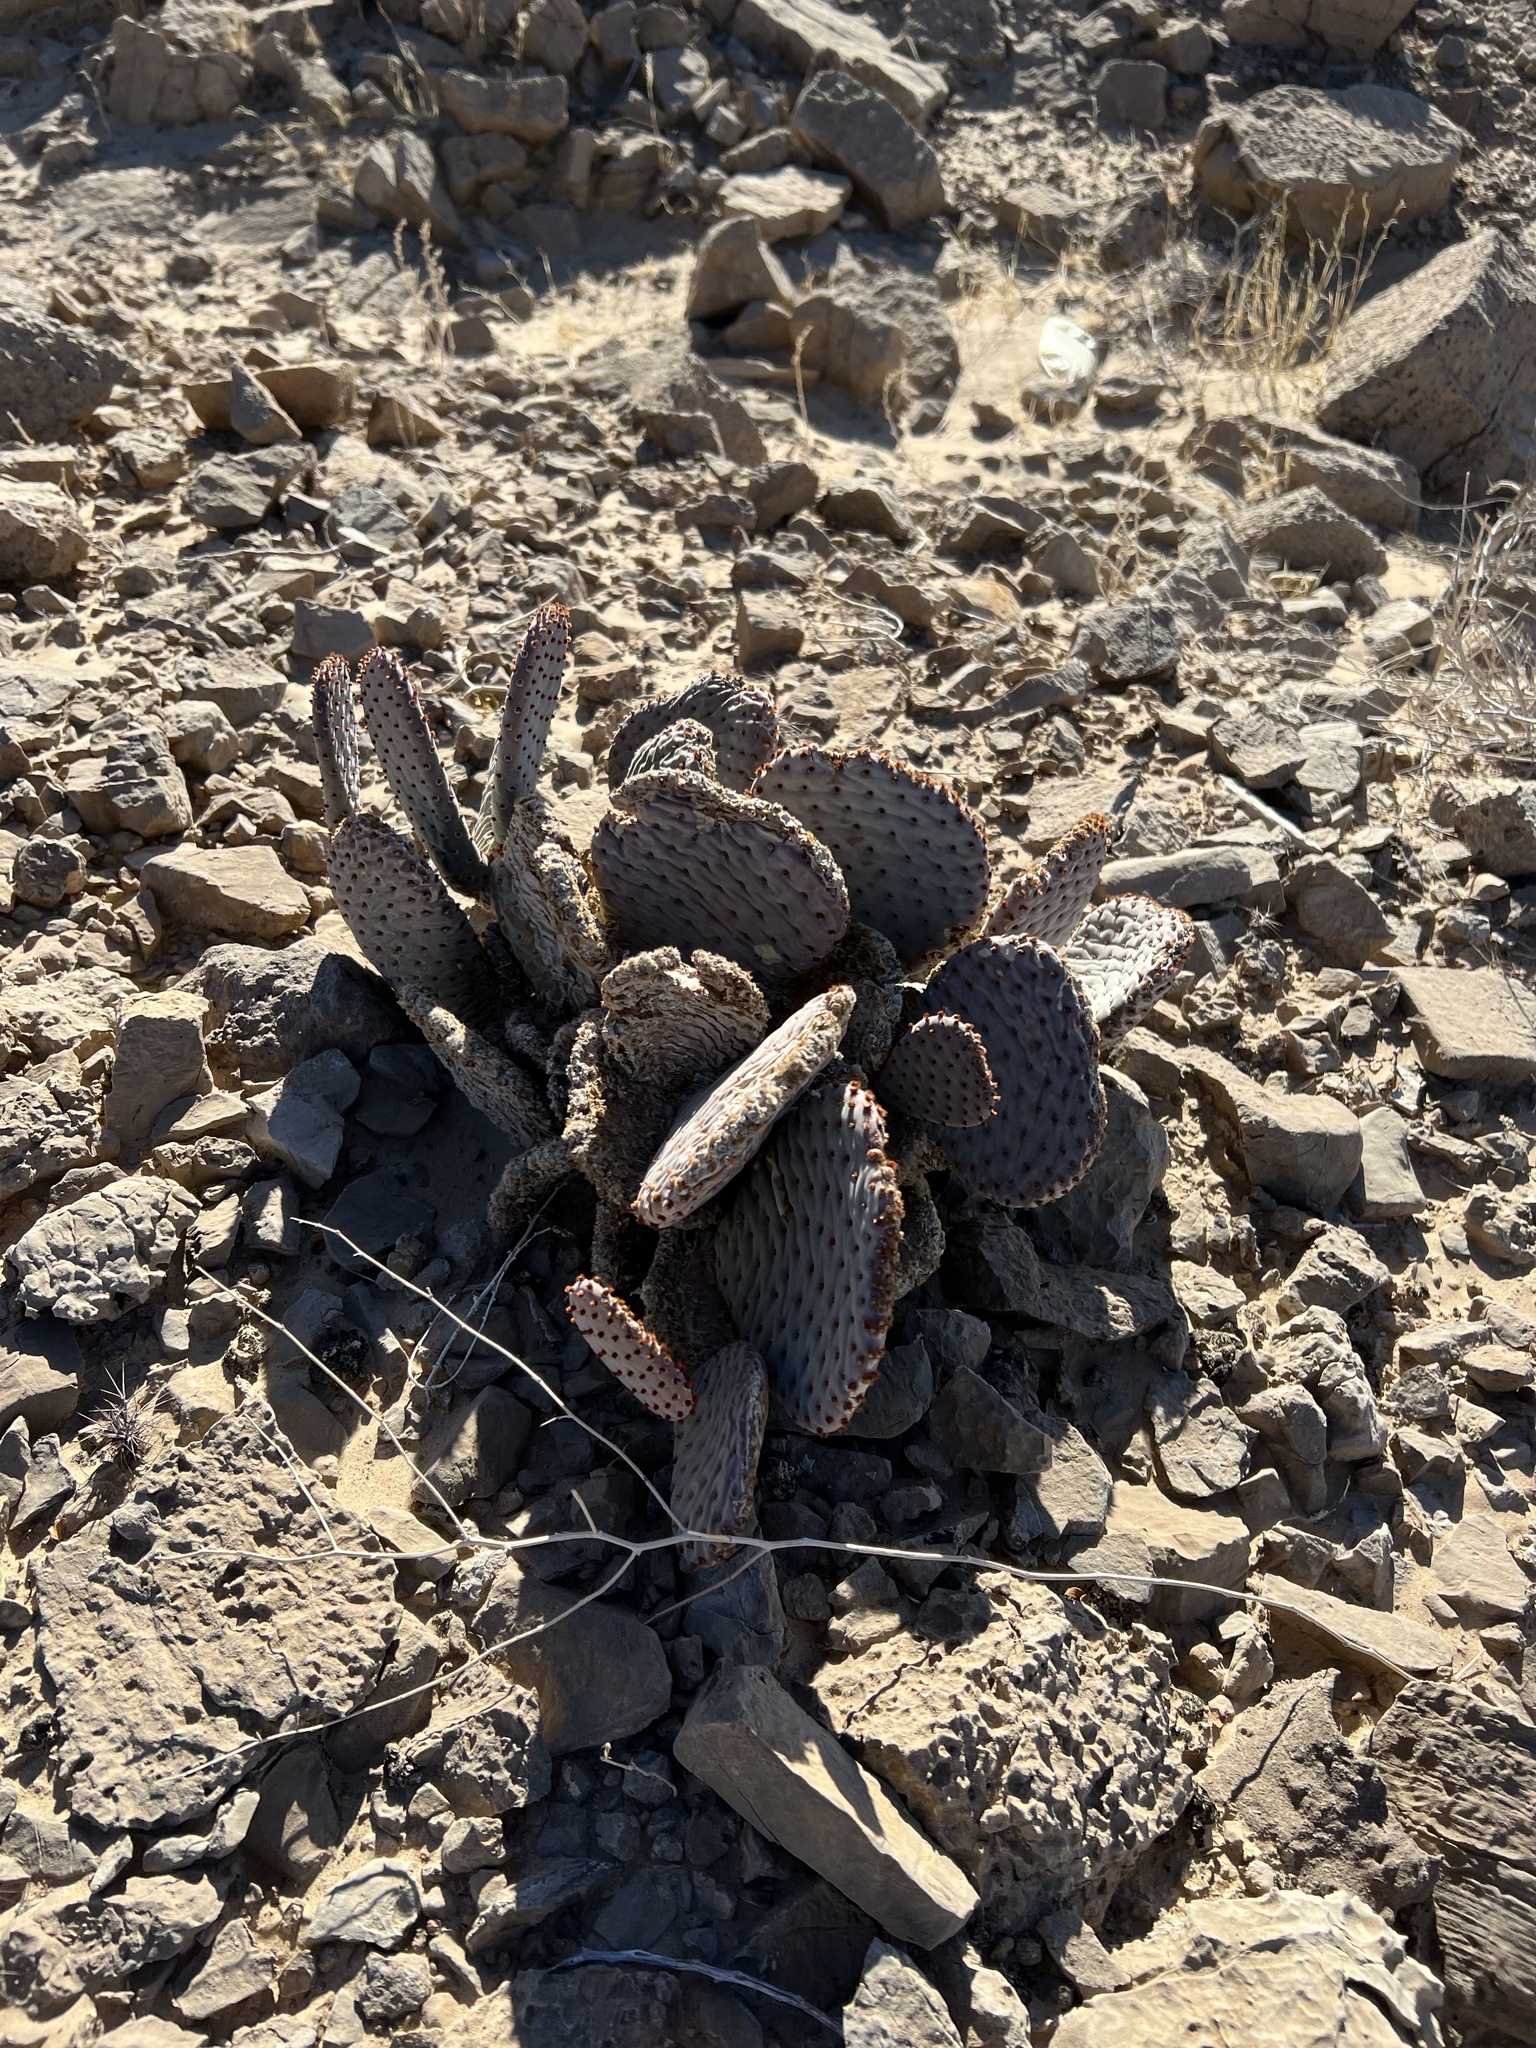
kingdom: Plantae
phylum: Tracheophyta
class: Magnoliopsida
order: Caryophyllales
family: Cactaceae
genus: Opuntia
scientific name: Opuntia basilaris
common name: Beavertail prickly-pear
